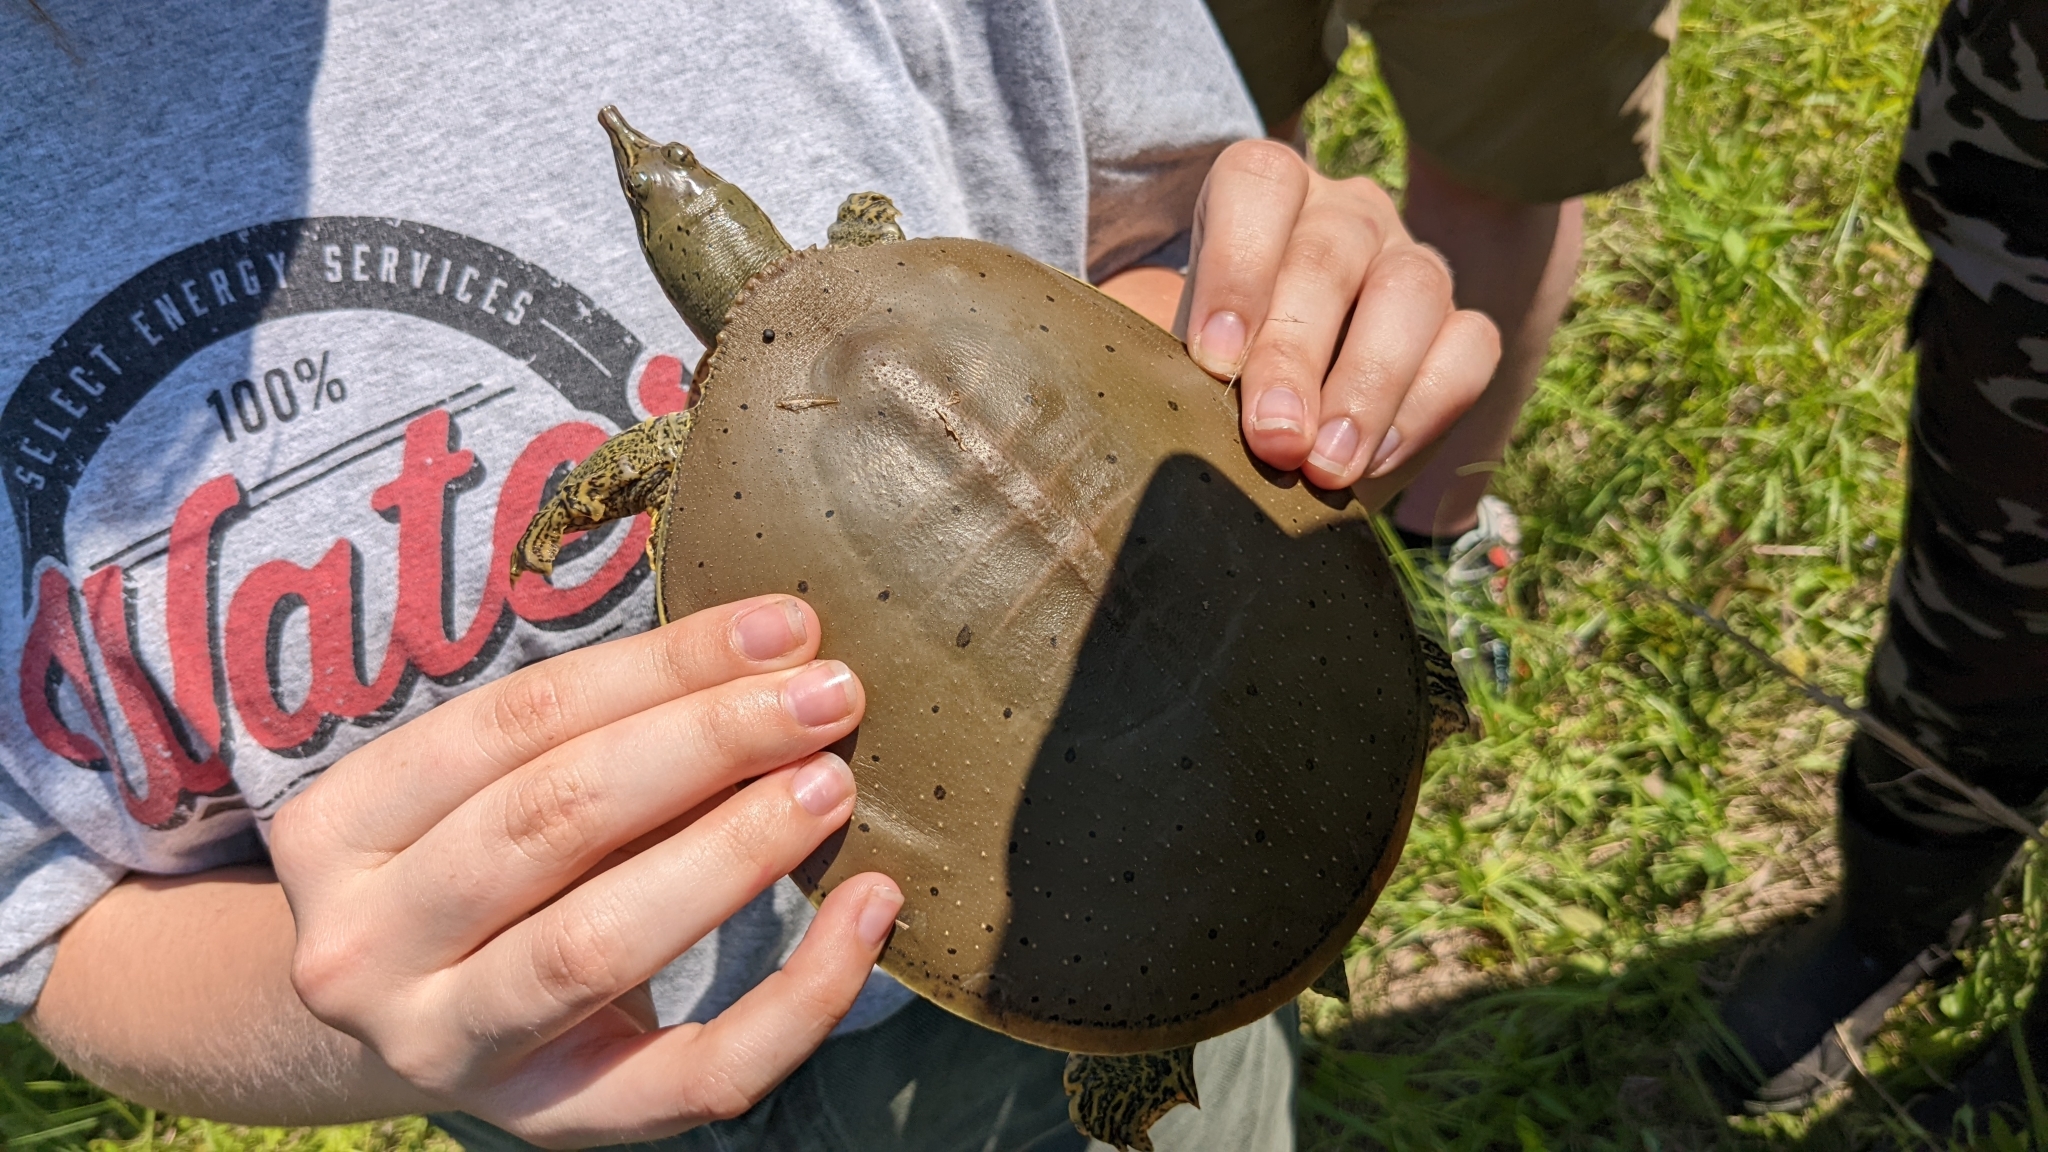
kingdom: Animalia
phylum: Chordata
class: Testudines
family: Trionychidae
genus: Apalone
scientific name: Apalone spinifera
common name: Spiny softshell turtle
